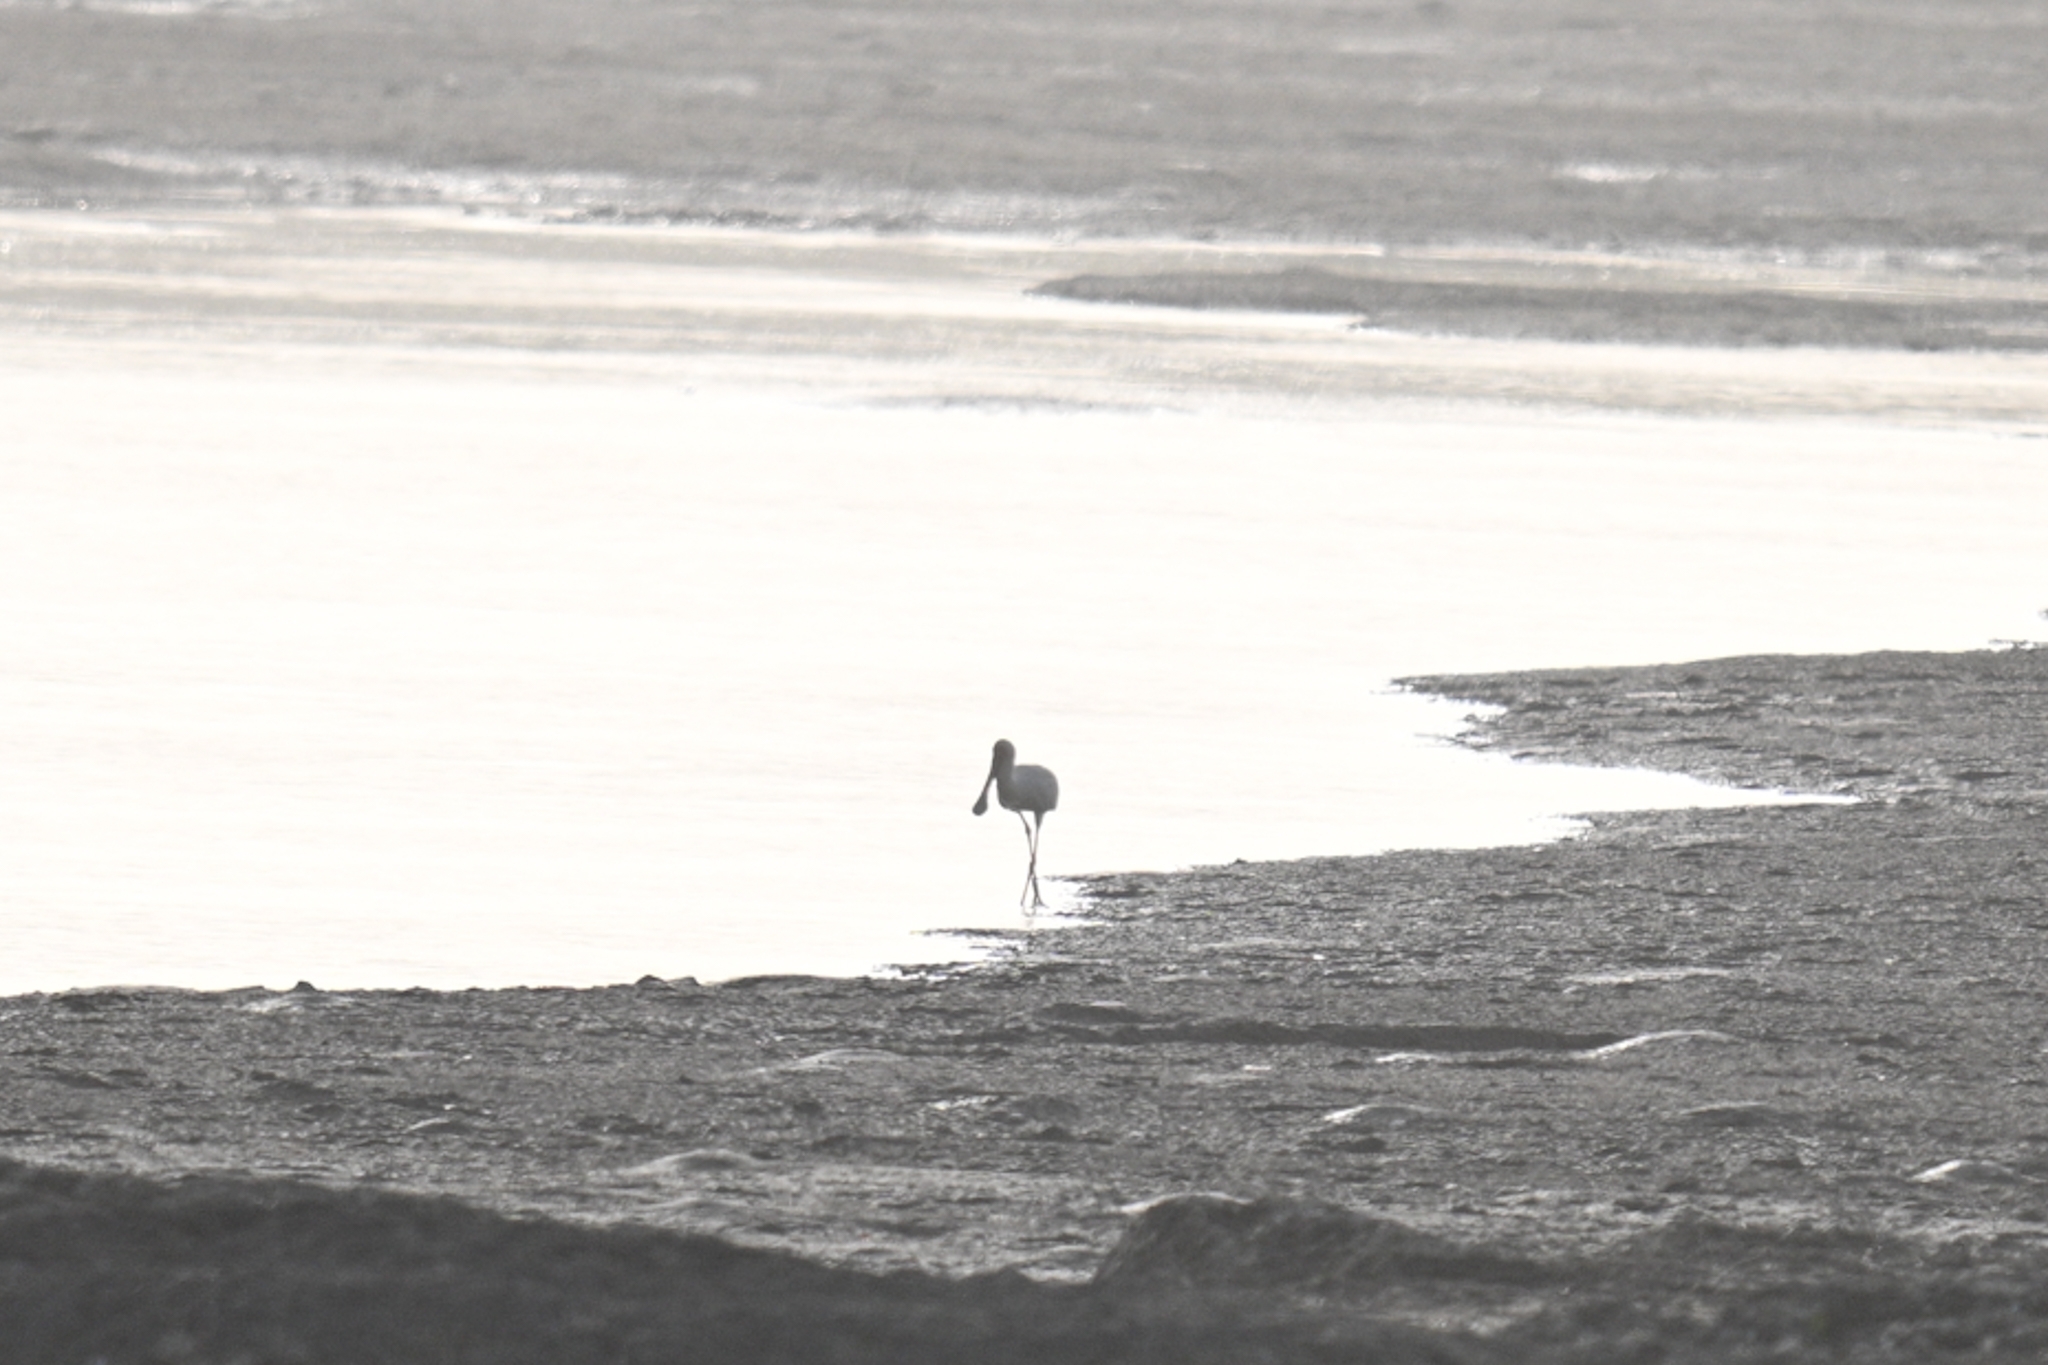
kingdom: Animalia
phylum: Chordata
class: Aves
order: Pelecaniformes
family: Threskiornithidae
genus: Platalea
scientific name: Platalea alba
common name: African spoonbill
